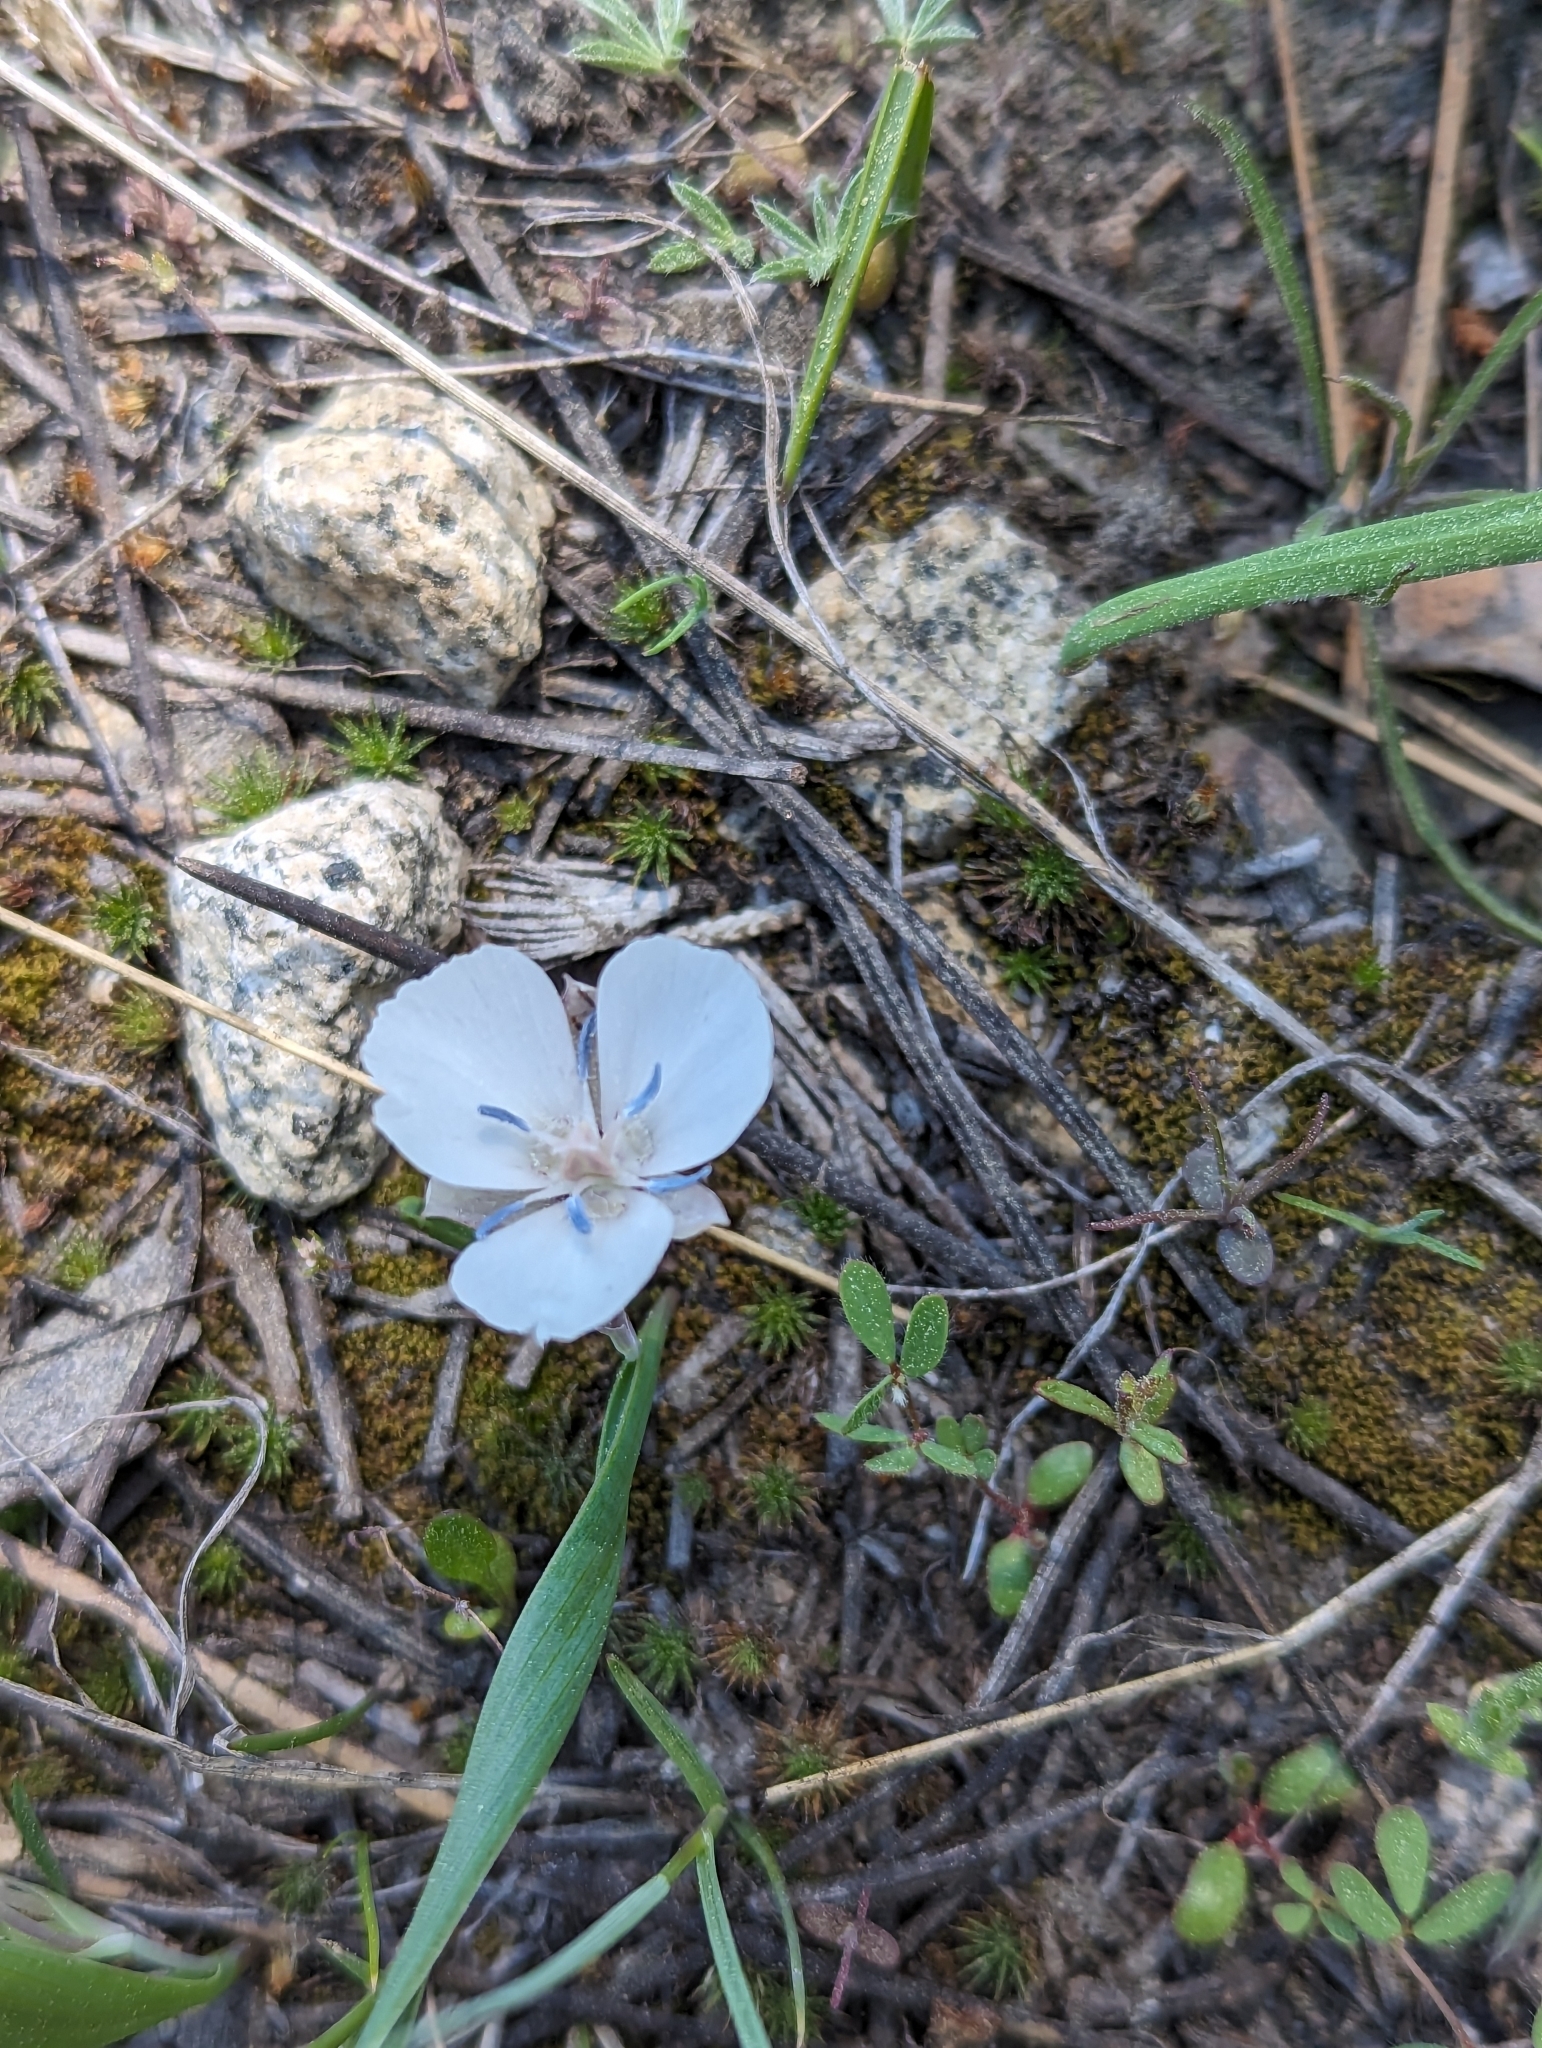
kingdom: Plantae
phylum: Tracheophyta
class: Liliopsida
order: Liliales
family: Liliaceae
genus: Calochortus
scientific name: Calochortus minimus
